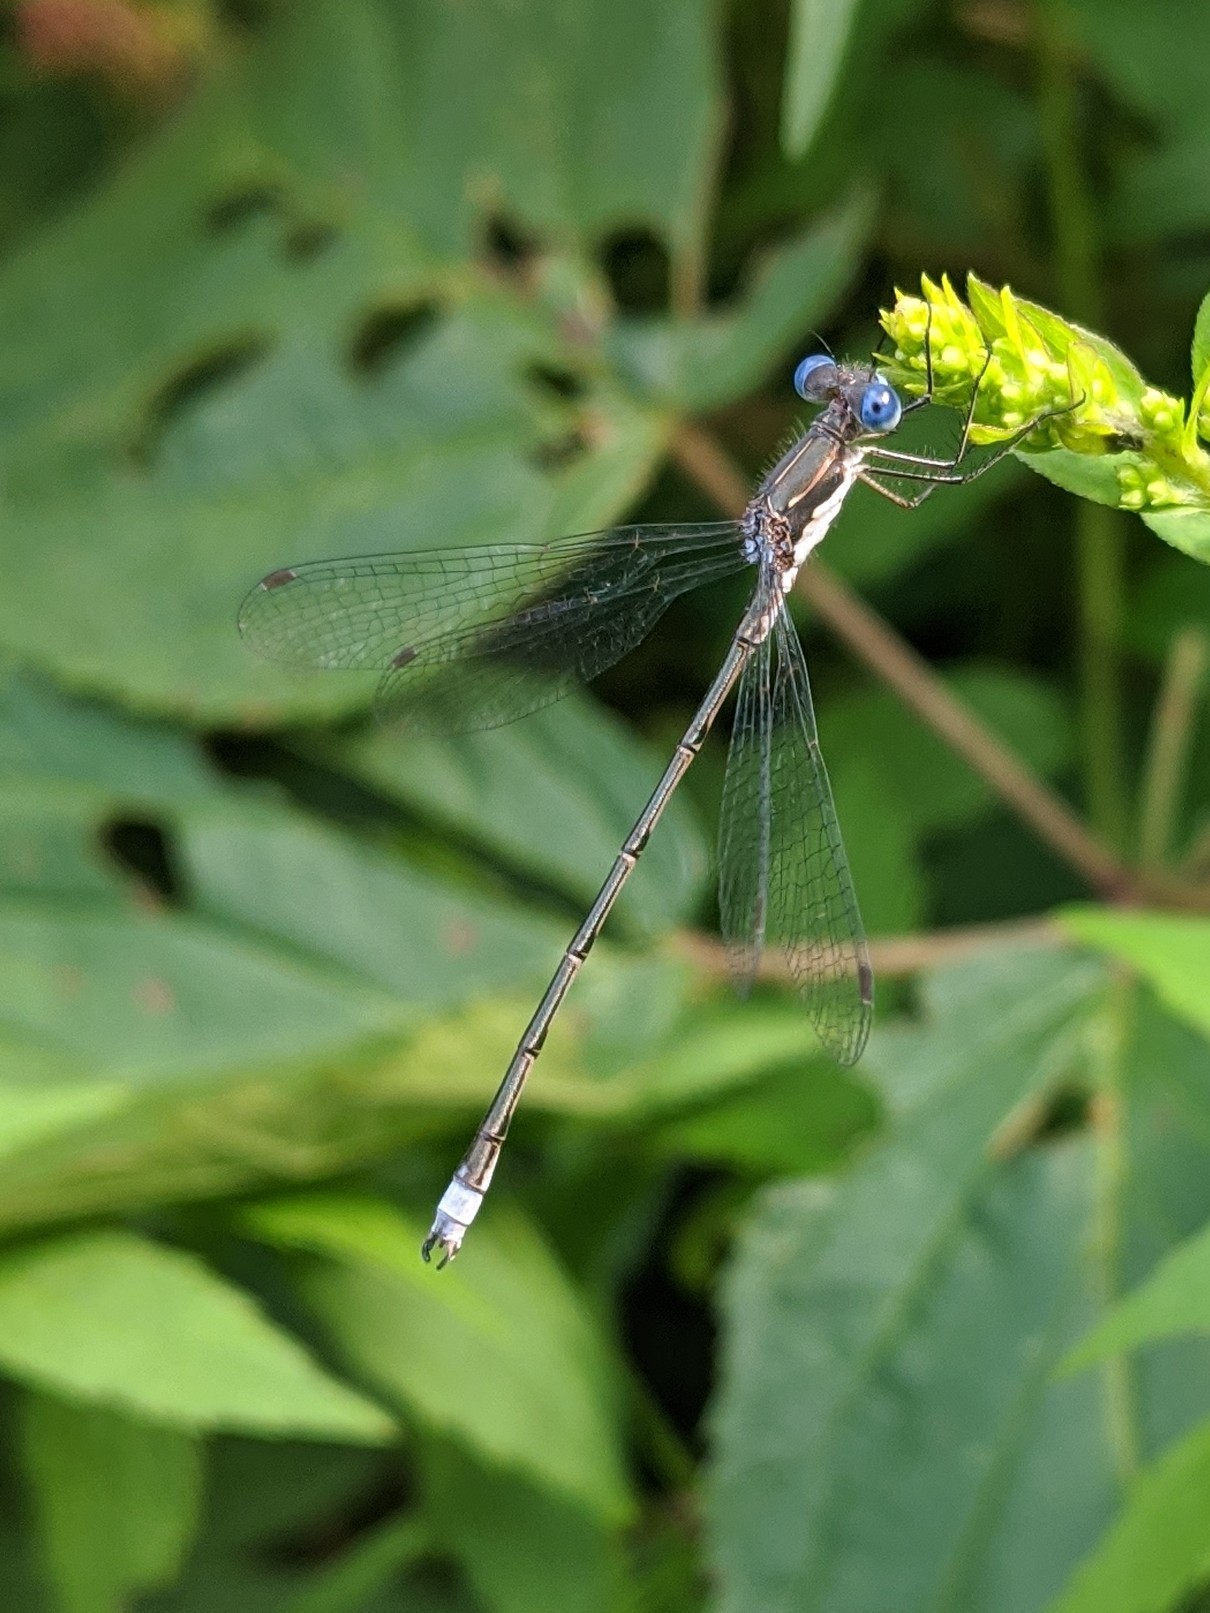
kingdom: Animalia
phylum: Arthropoda
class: Insecta
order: Odonata
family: Lestidae
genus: Lestes
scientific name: Lestes congener
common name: Spotted spreadwing
